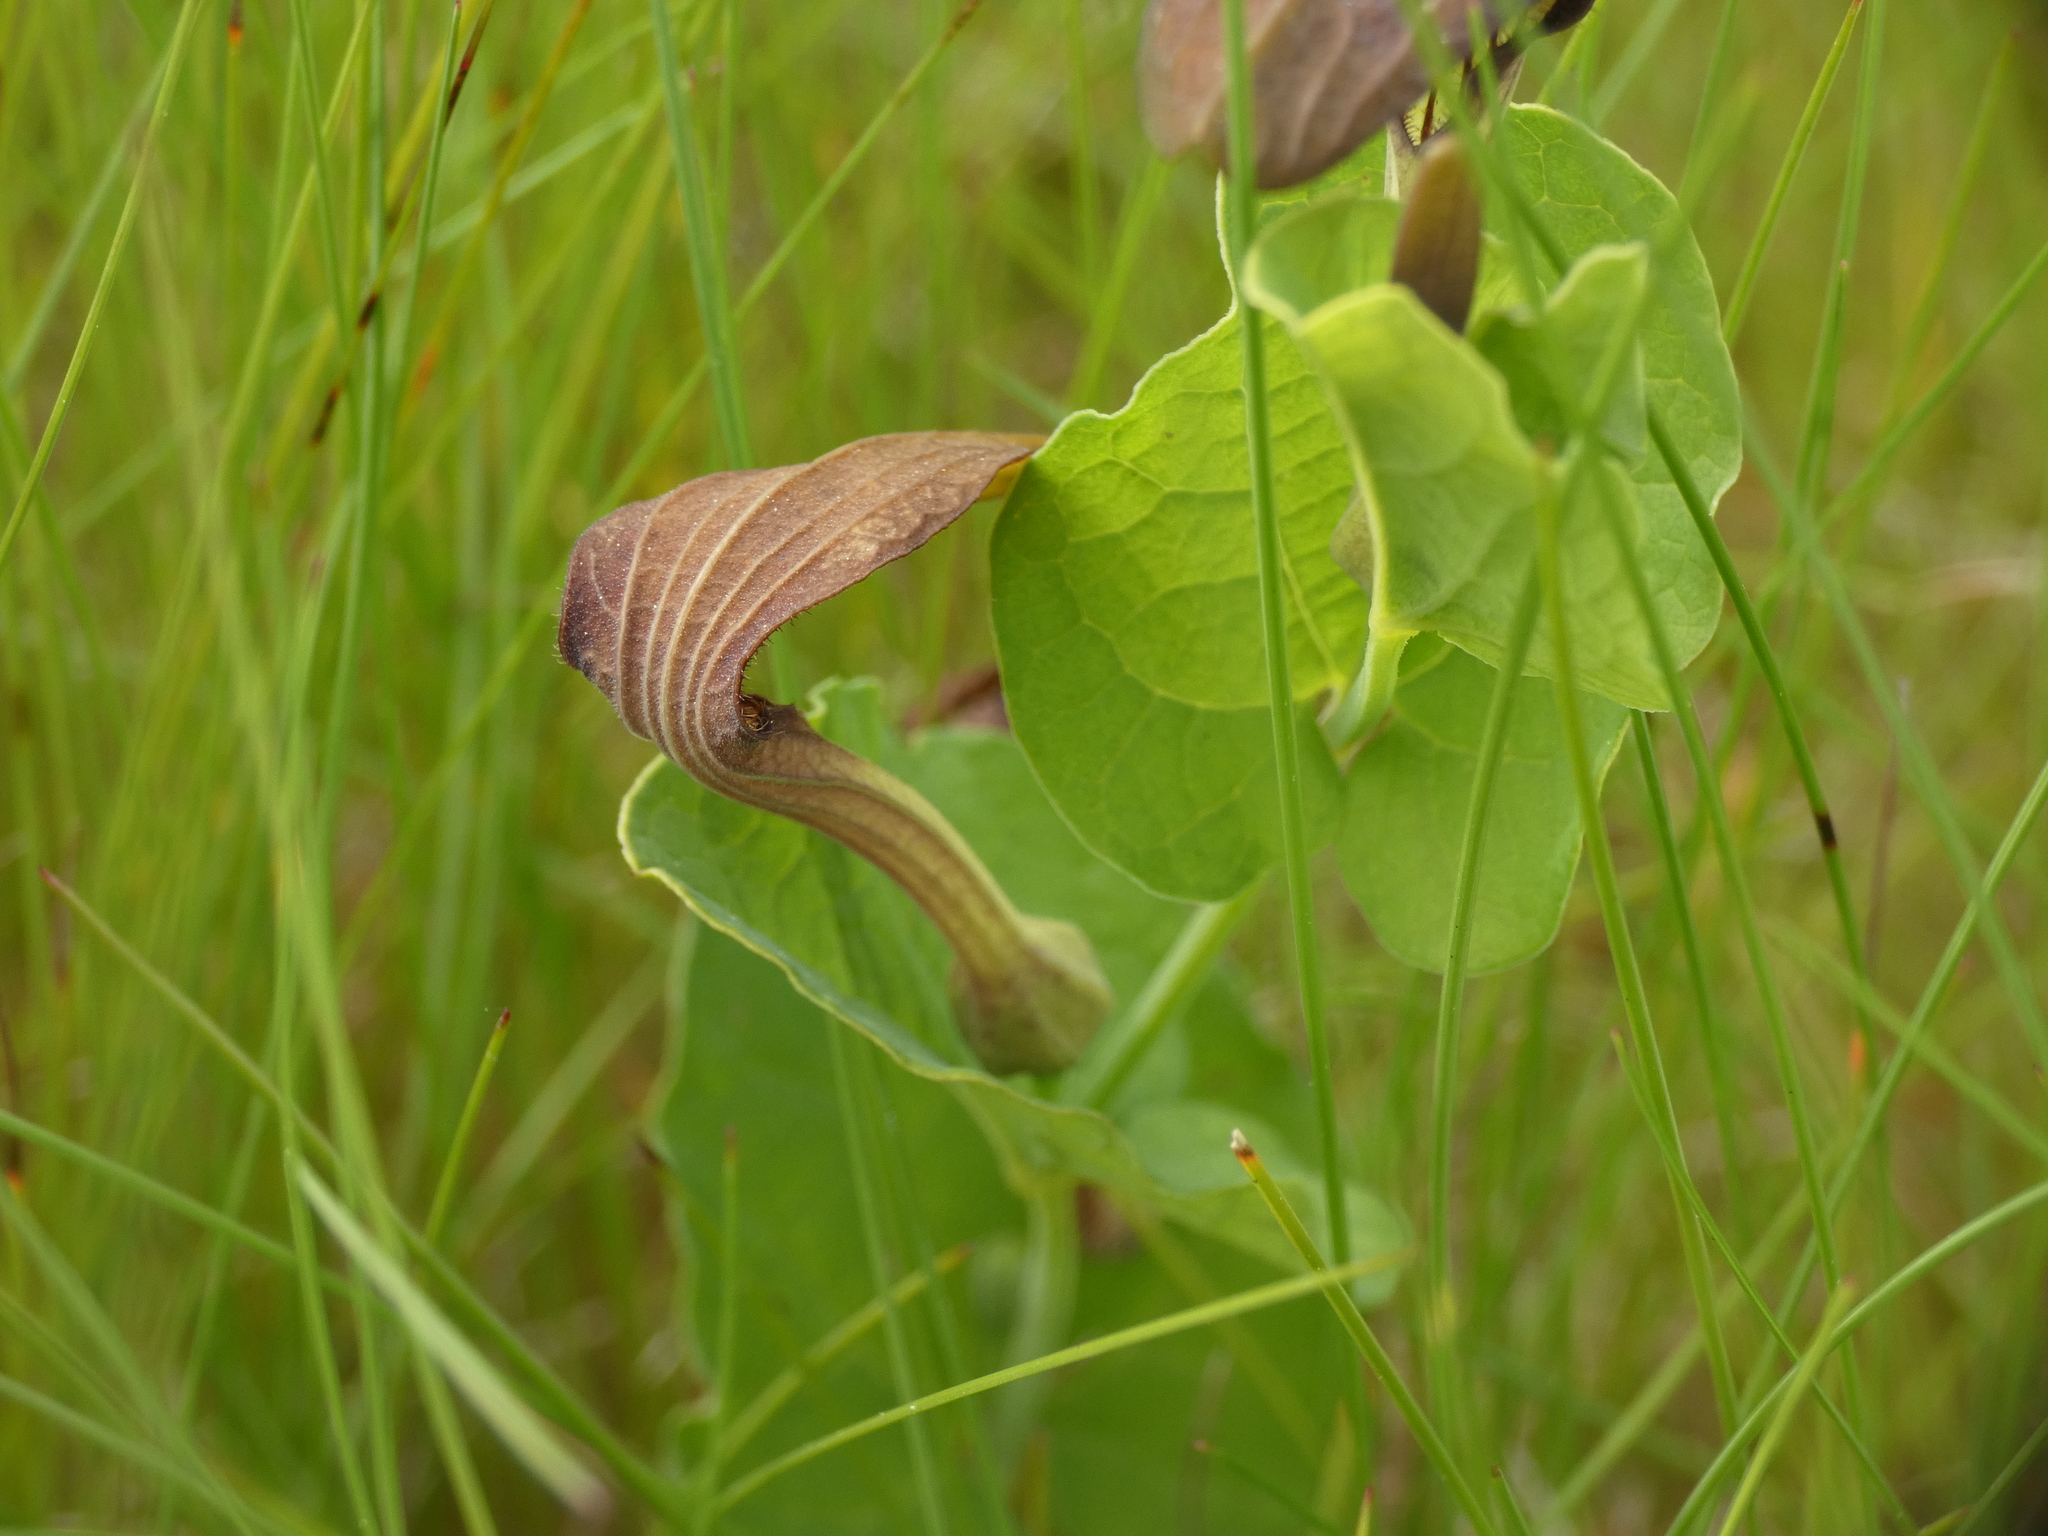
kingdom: Plantae
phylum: Tracheophyta
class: Magnoliopsida
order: Piperales
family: Aristolochiaceae
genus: Aristolochia
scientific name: Aristolochia rotunda
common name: Smearwort
